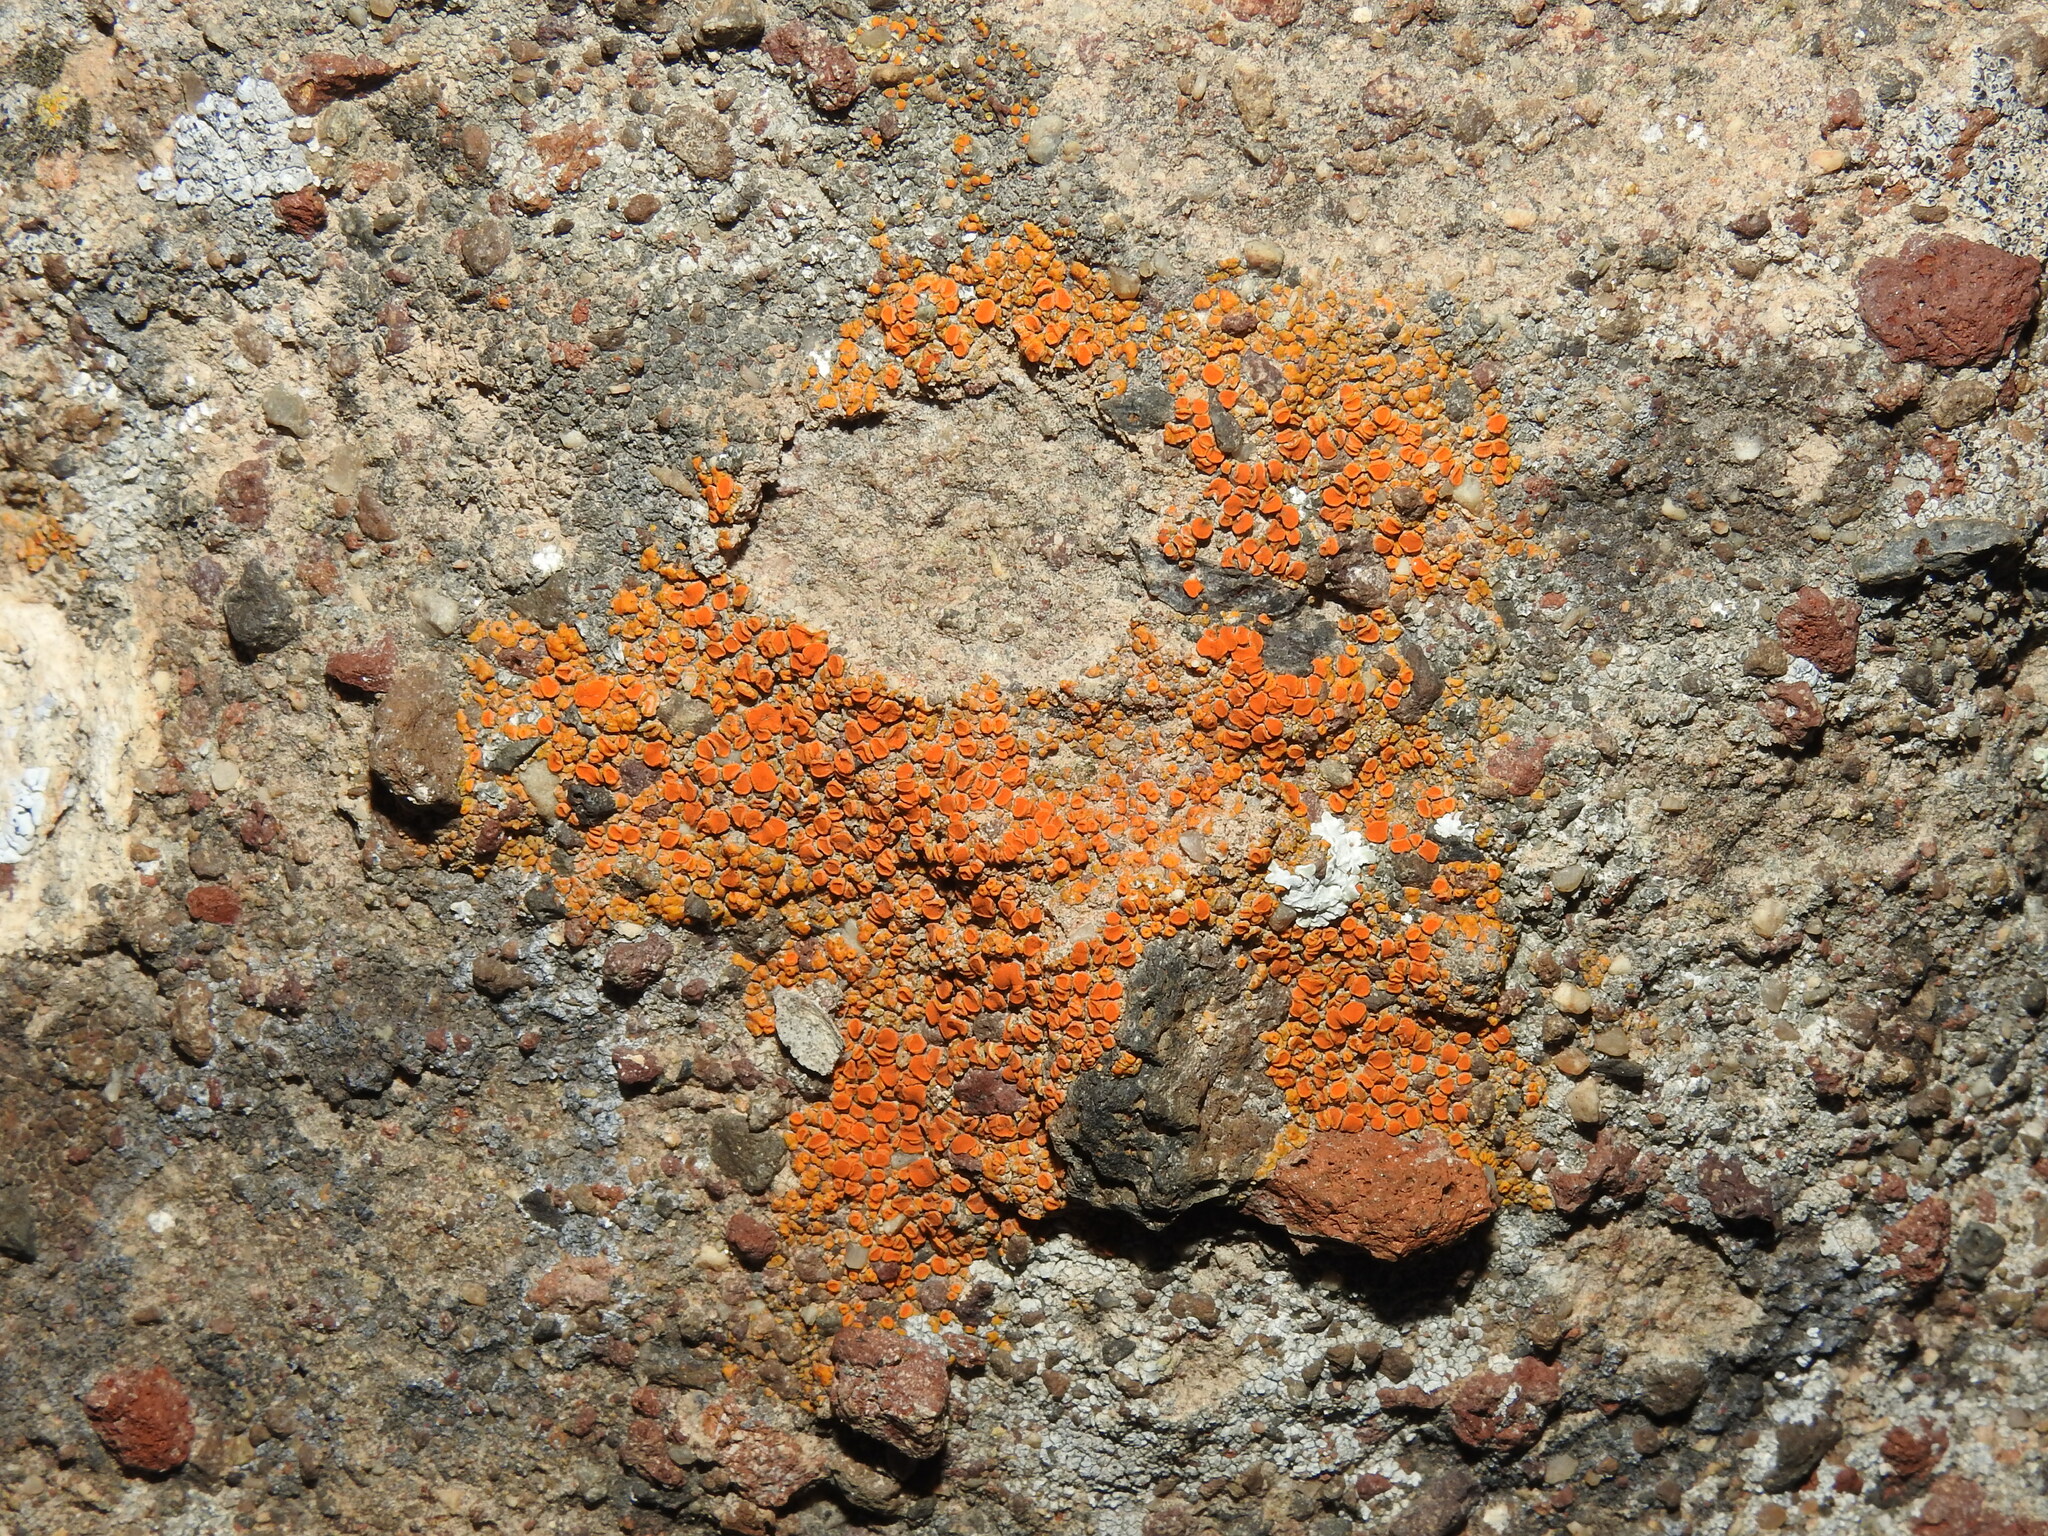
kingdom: Fungi
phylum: Ascomycota
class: Lecanoromycetes
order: Teloschistales
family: Teloschistaceae
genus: Squamulea
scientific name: Squamulea subsoluta
